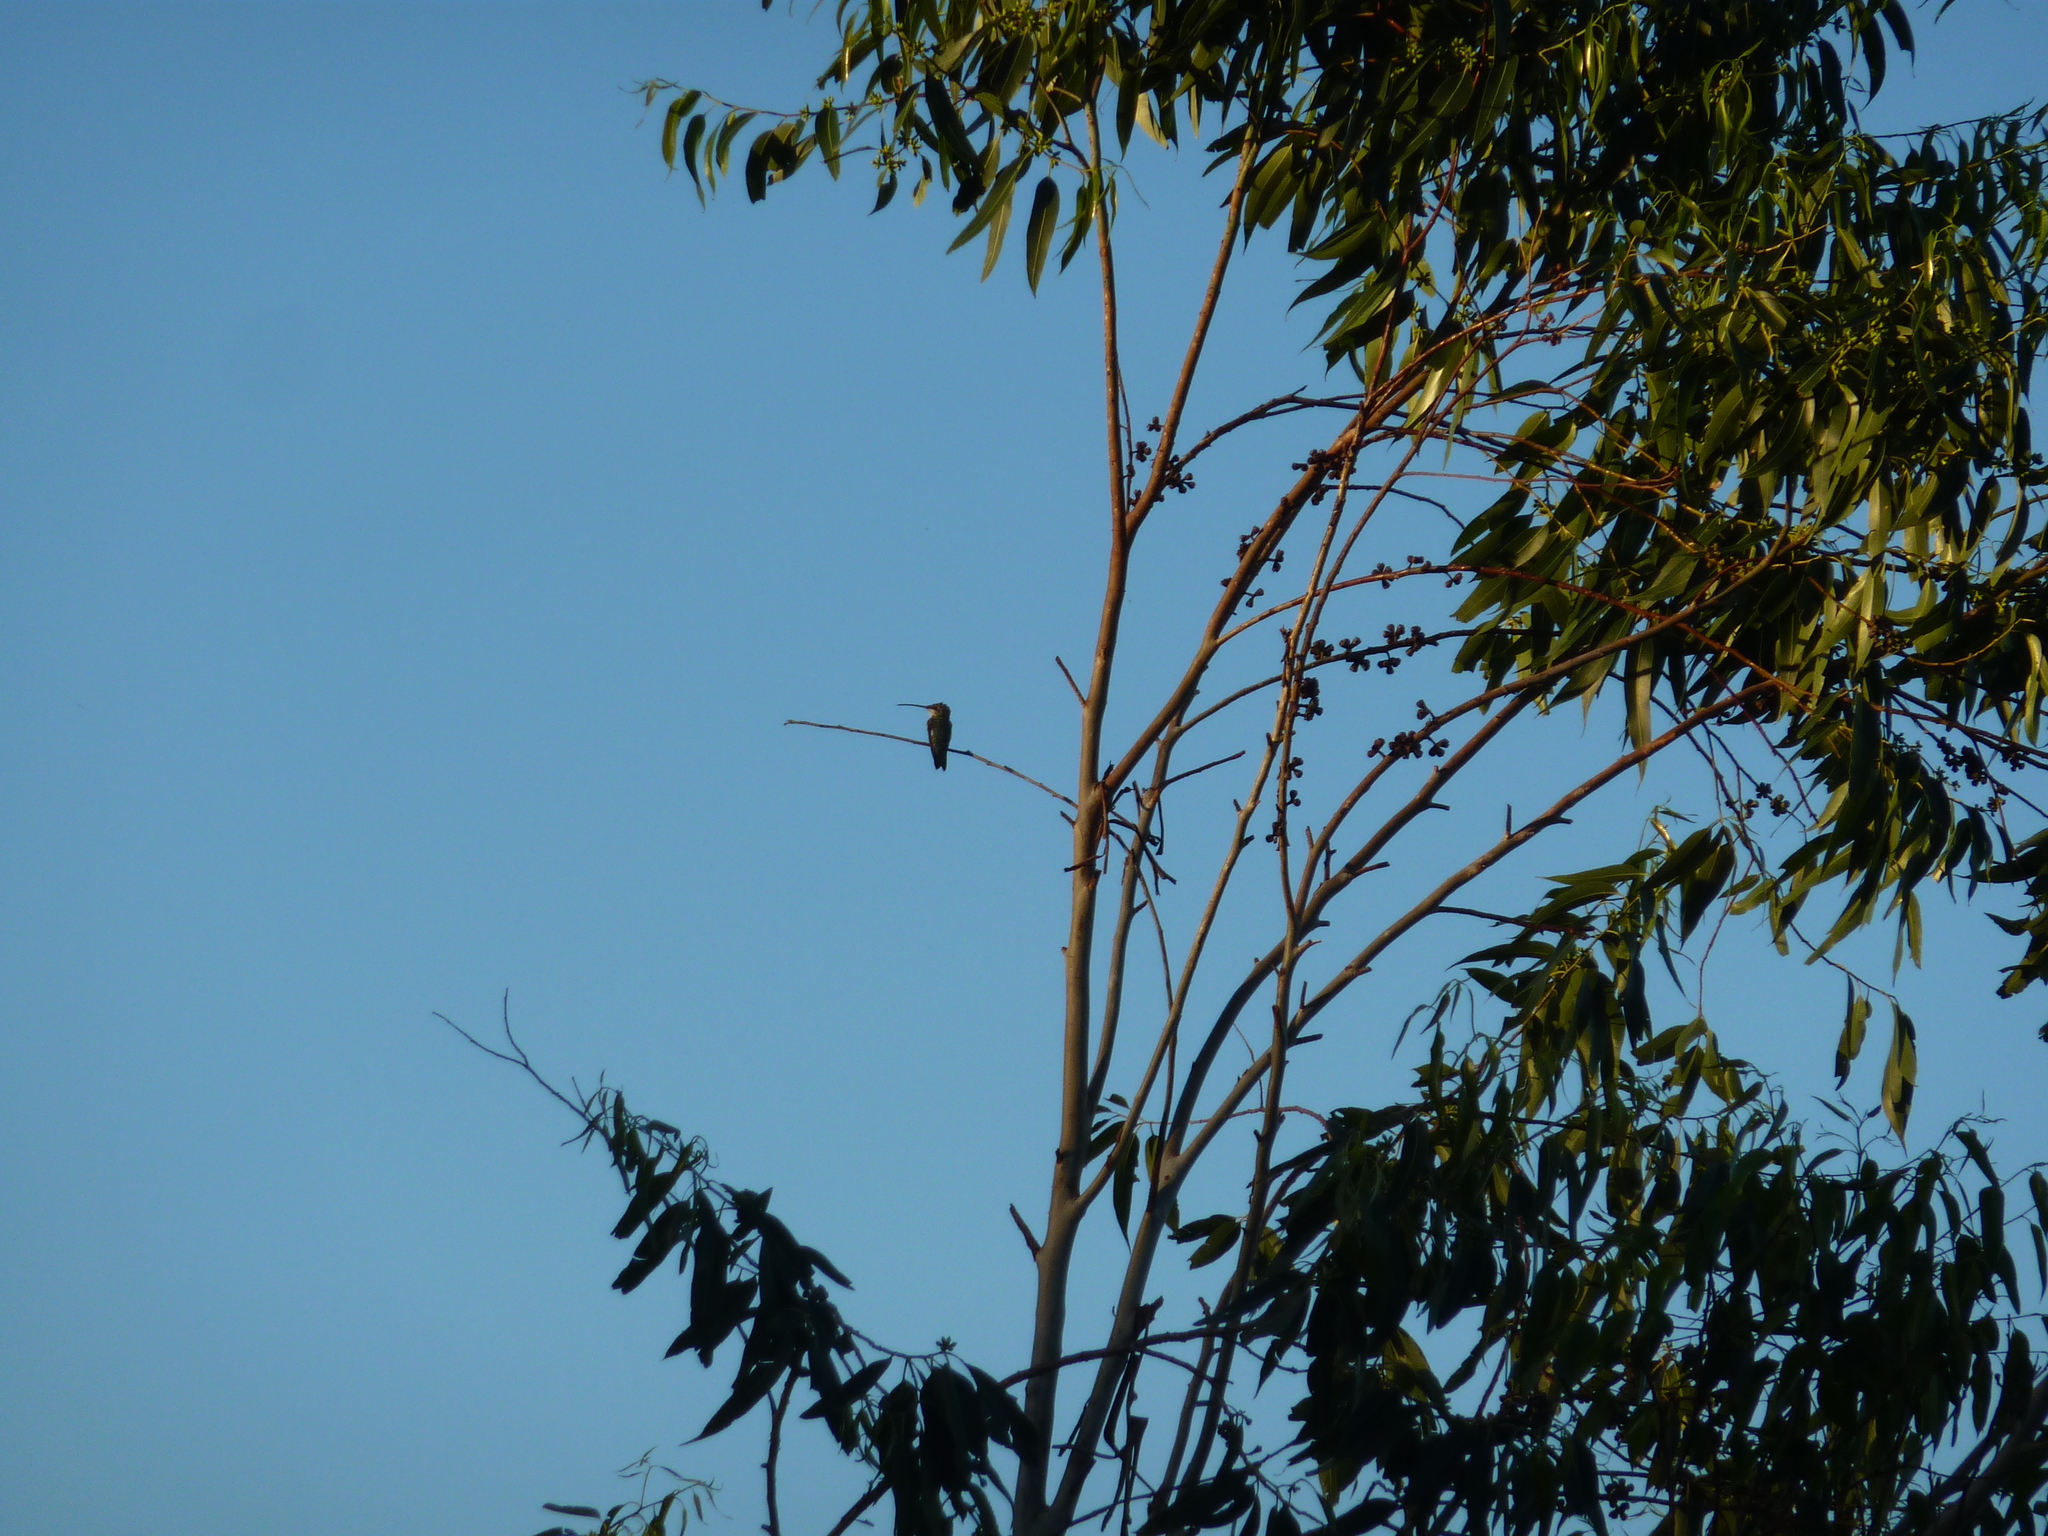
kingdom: Animalia
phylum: Chordata
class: Aves
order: Apodiformes
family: Trochilidae
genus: Heliomaster
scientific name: Heliomaster furcifer
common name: Blue-tufted starthroat
